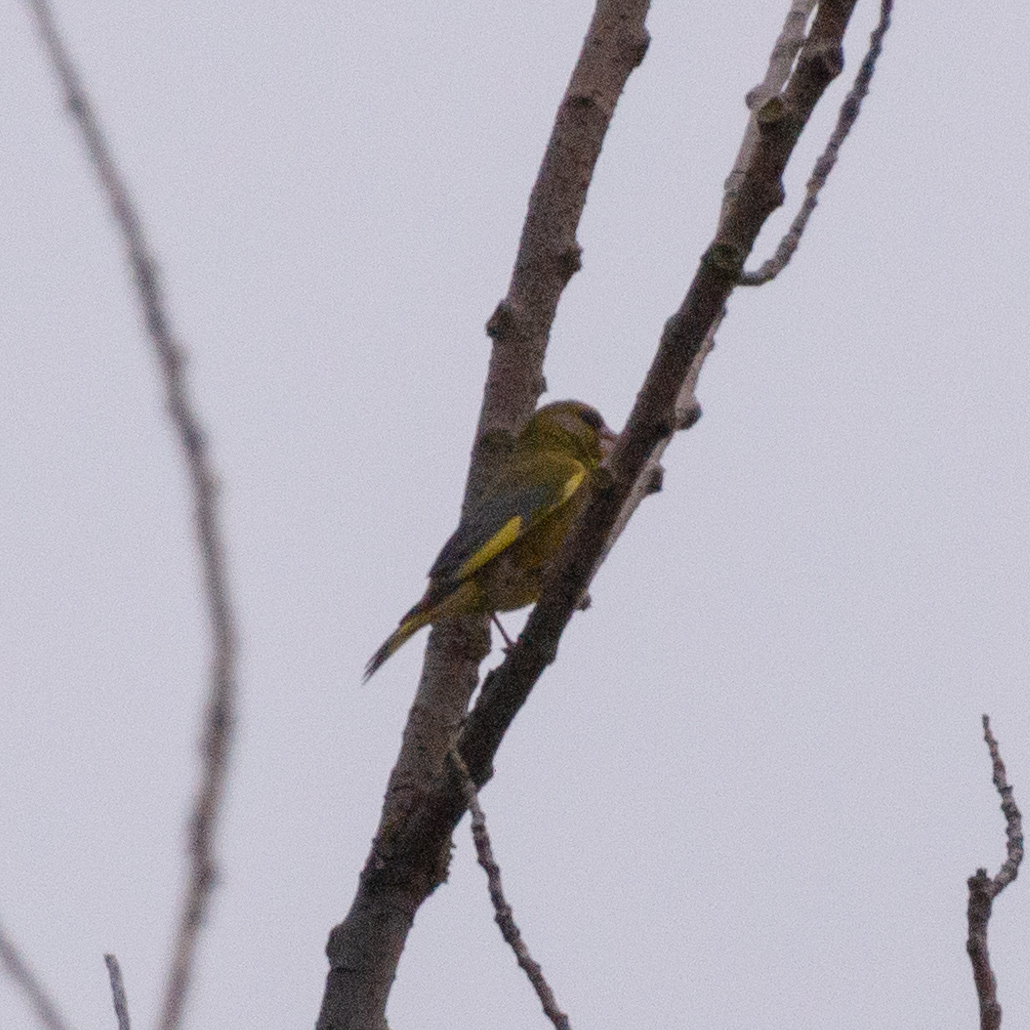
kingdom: Plantae
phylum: Tracheophyta
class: Liliopsida
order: Poales
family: Poaceae
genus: Chloris
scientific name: Chloris chloris
